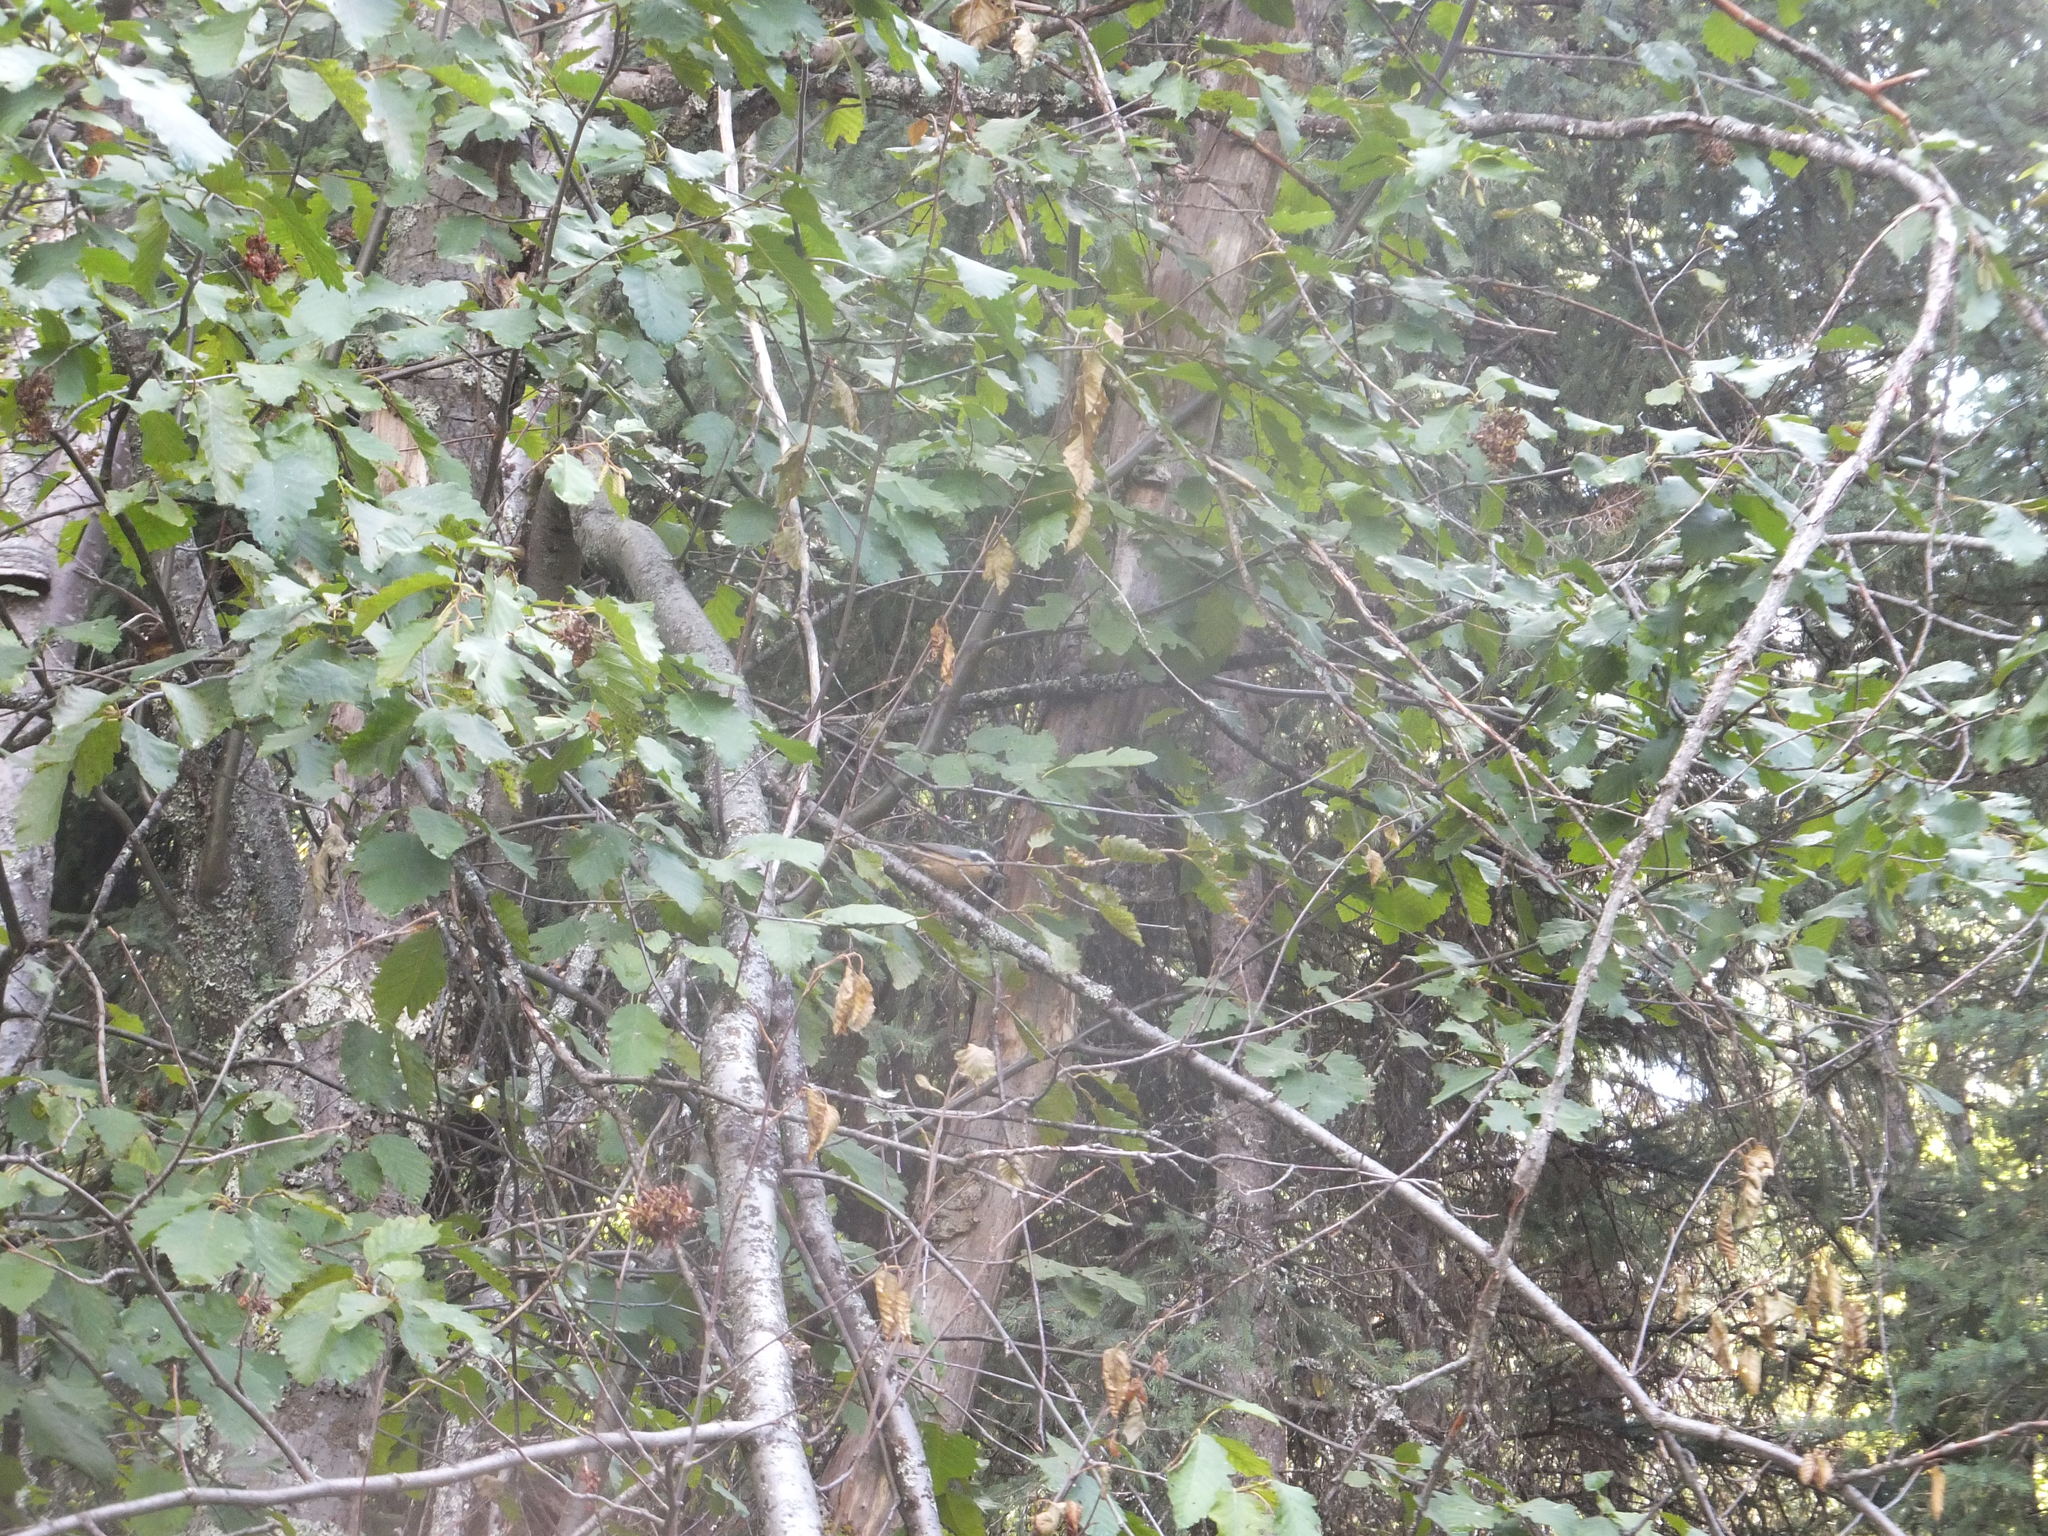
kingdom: Animalia
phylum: Chordata
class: Aves
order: Passeriformes
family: Sittidae
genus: Sitta
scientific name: Sitta canadensis
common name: Red-breasted nuthatch
